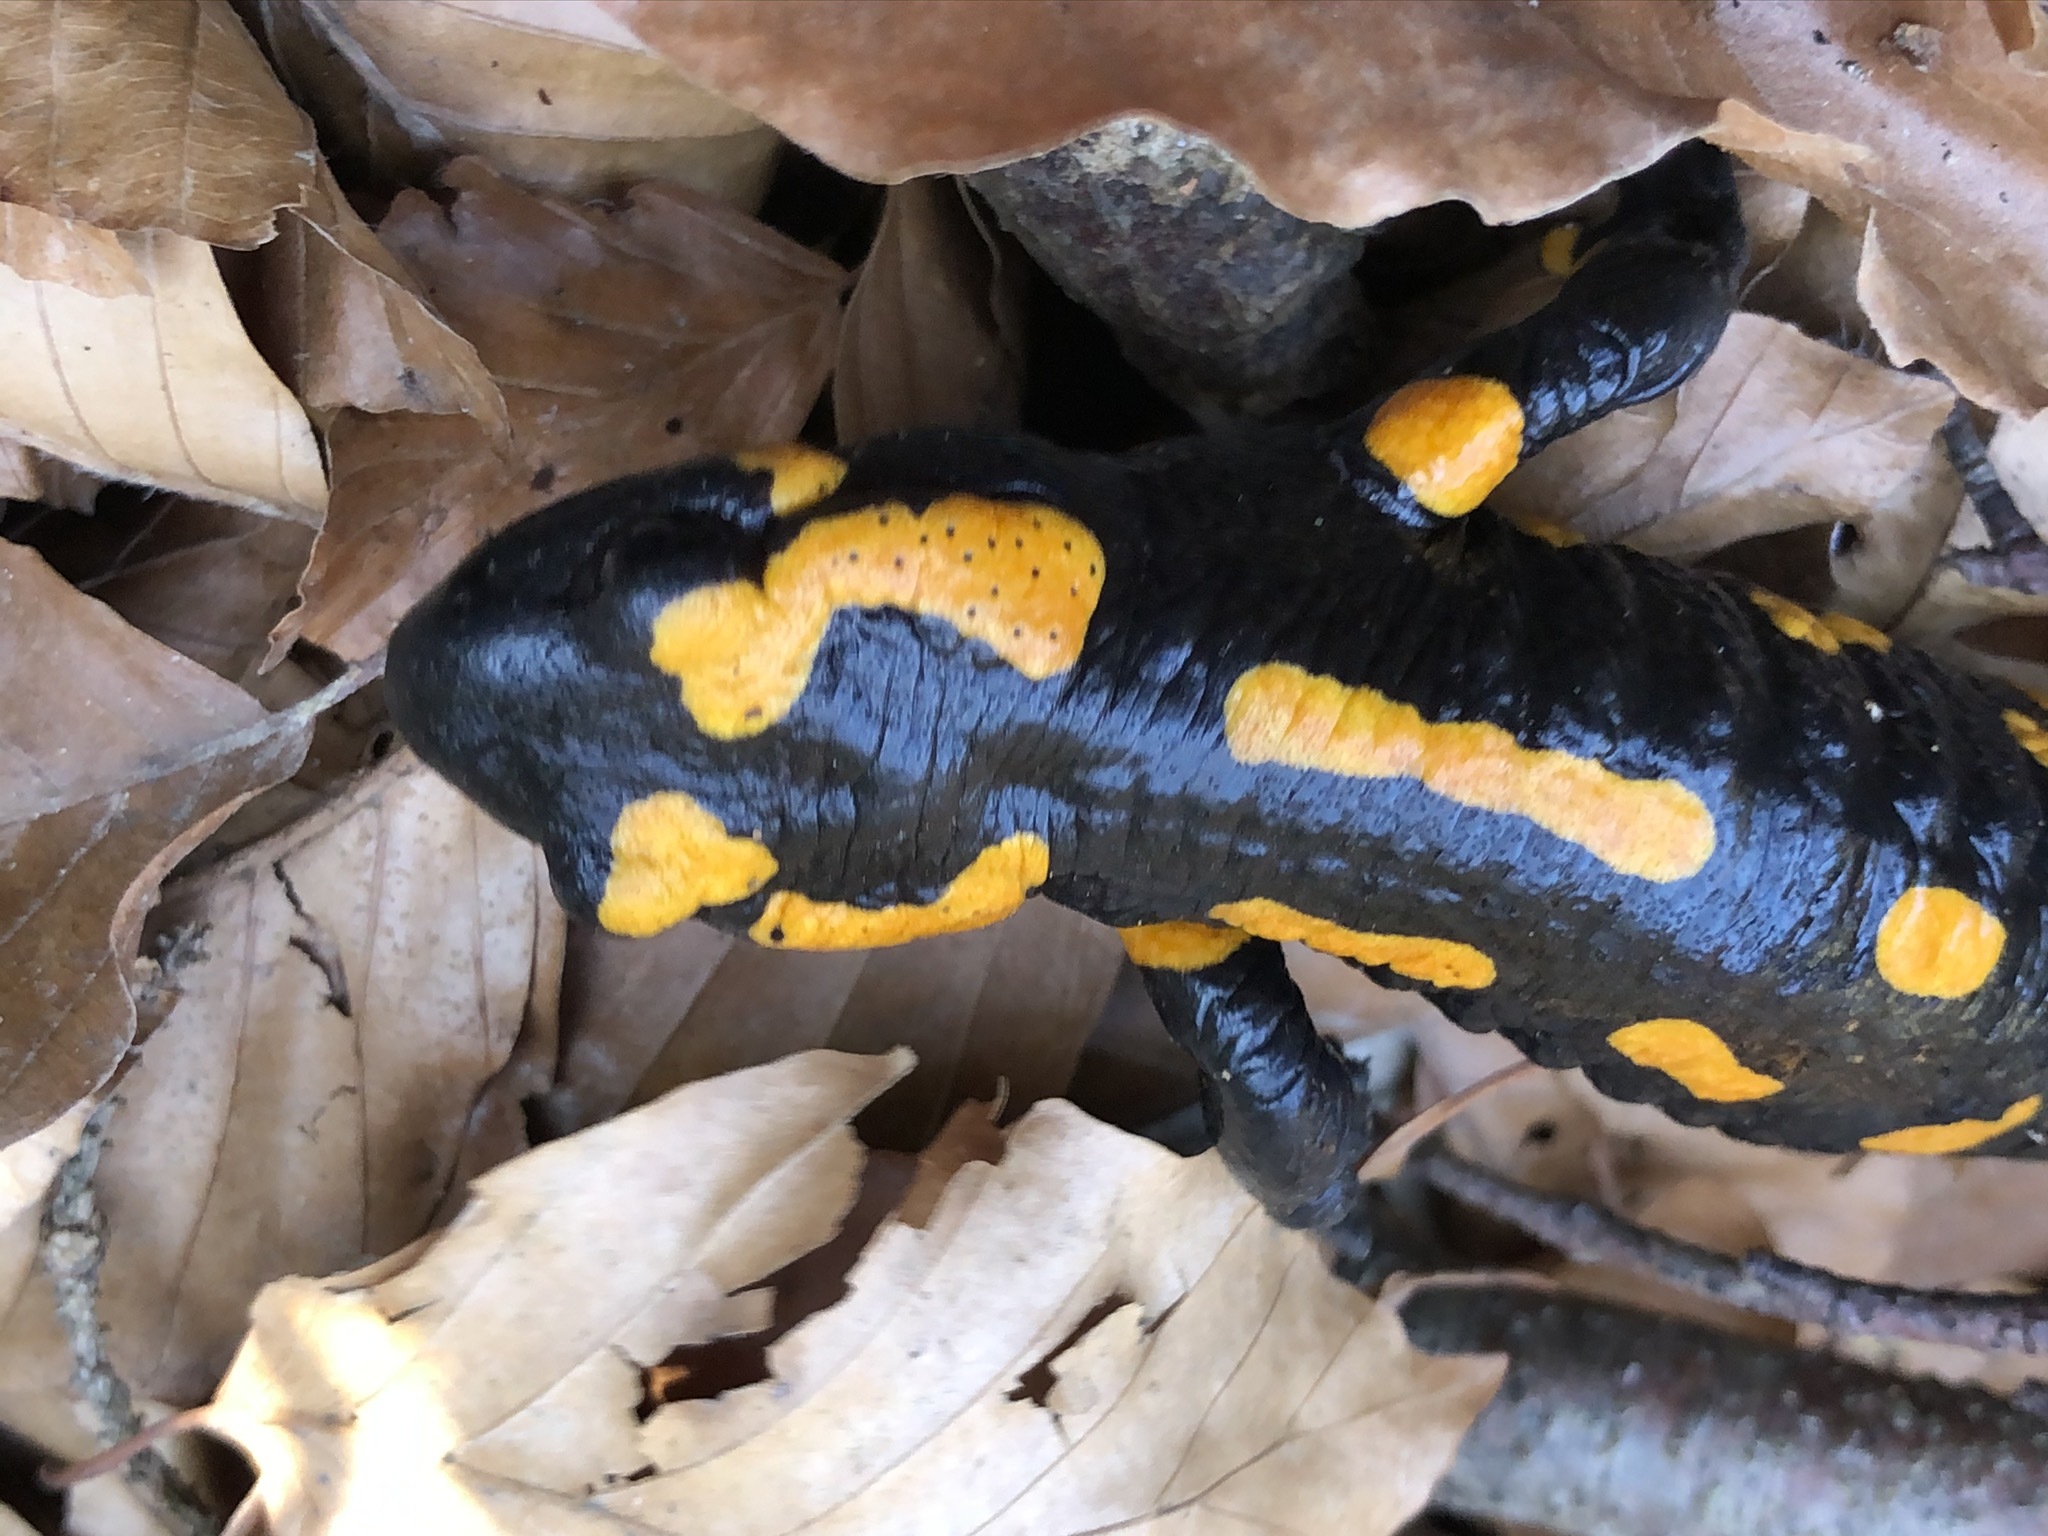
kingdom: Animalia
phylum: Chordata
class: Amphibia
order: Caudata
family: Salamandridae
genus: Salamandra
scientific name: Salamandra salamandra
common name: Fire salamander
